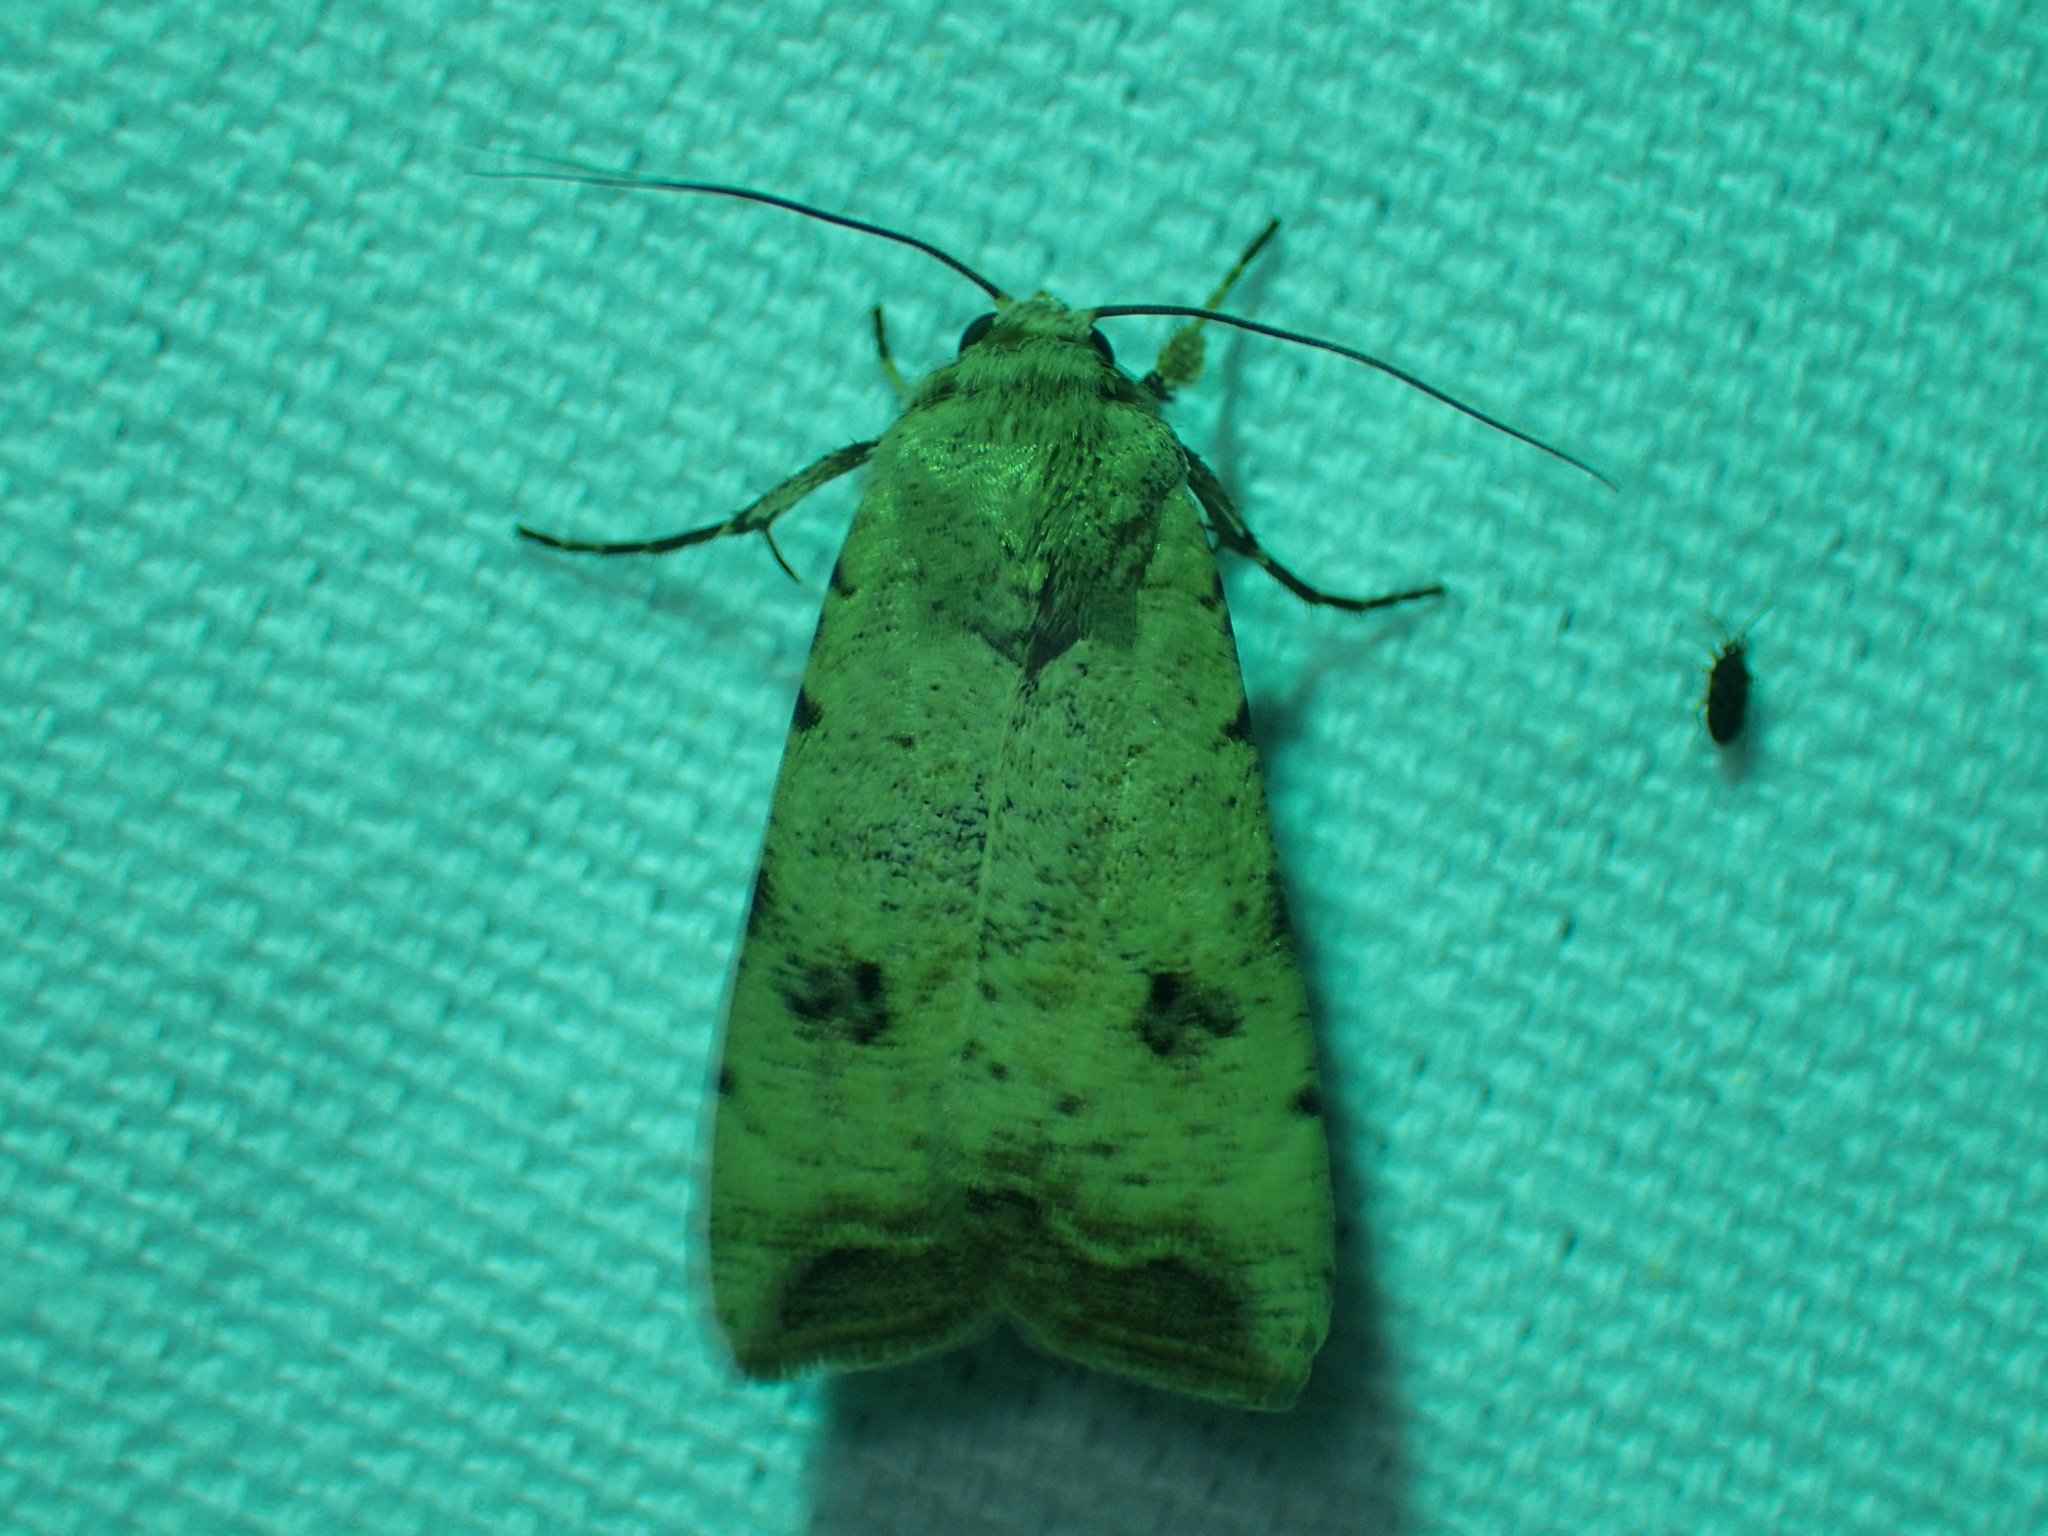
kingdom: Animalia
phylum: Arthropoda
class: Insecta
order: Lepidoptera
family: Noctuidae
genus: Anicla
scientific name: Anicla infecta
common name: Green cutworm
